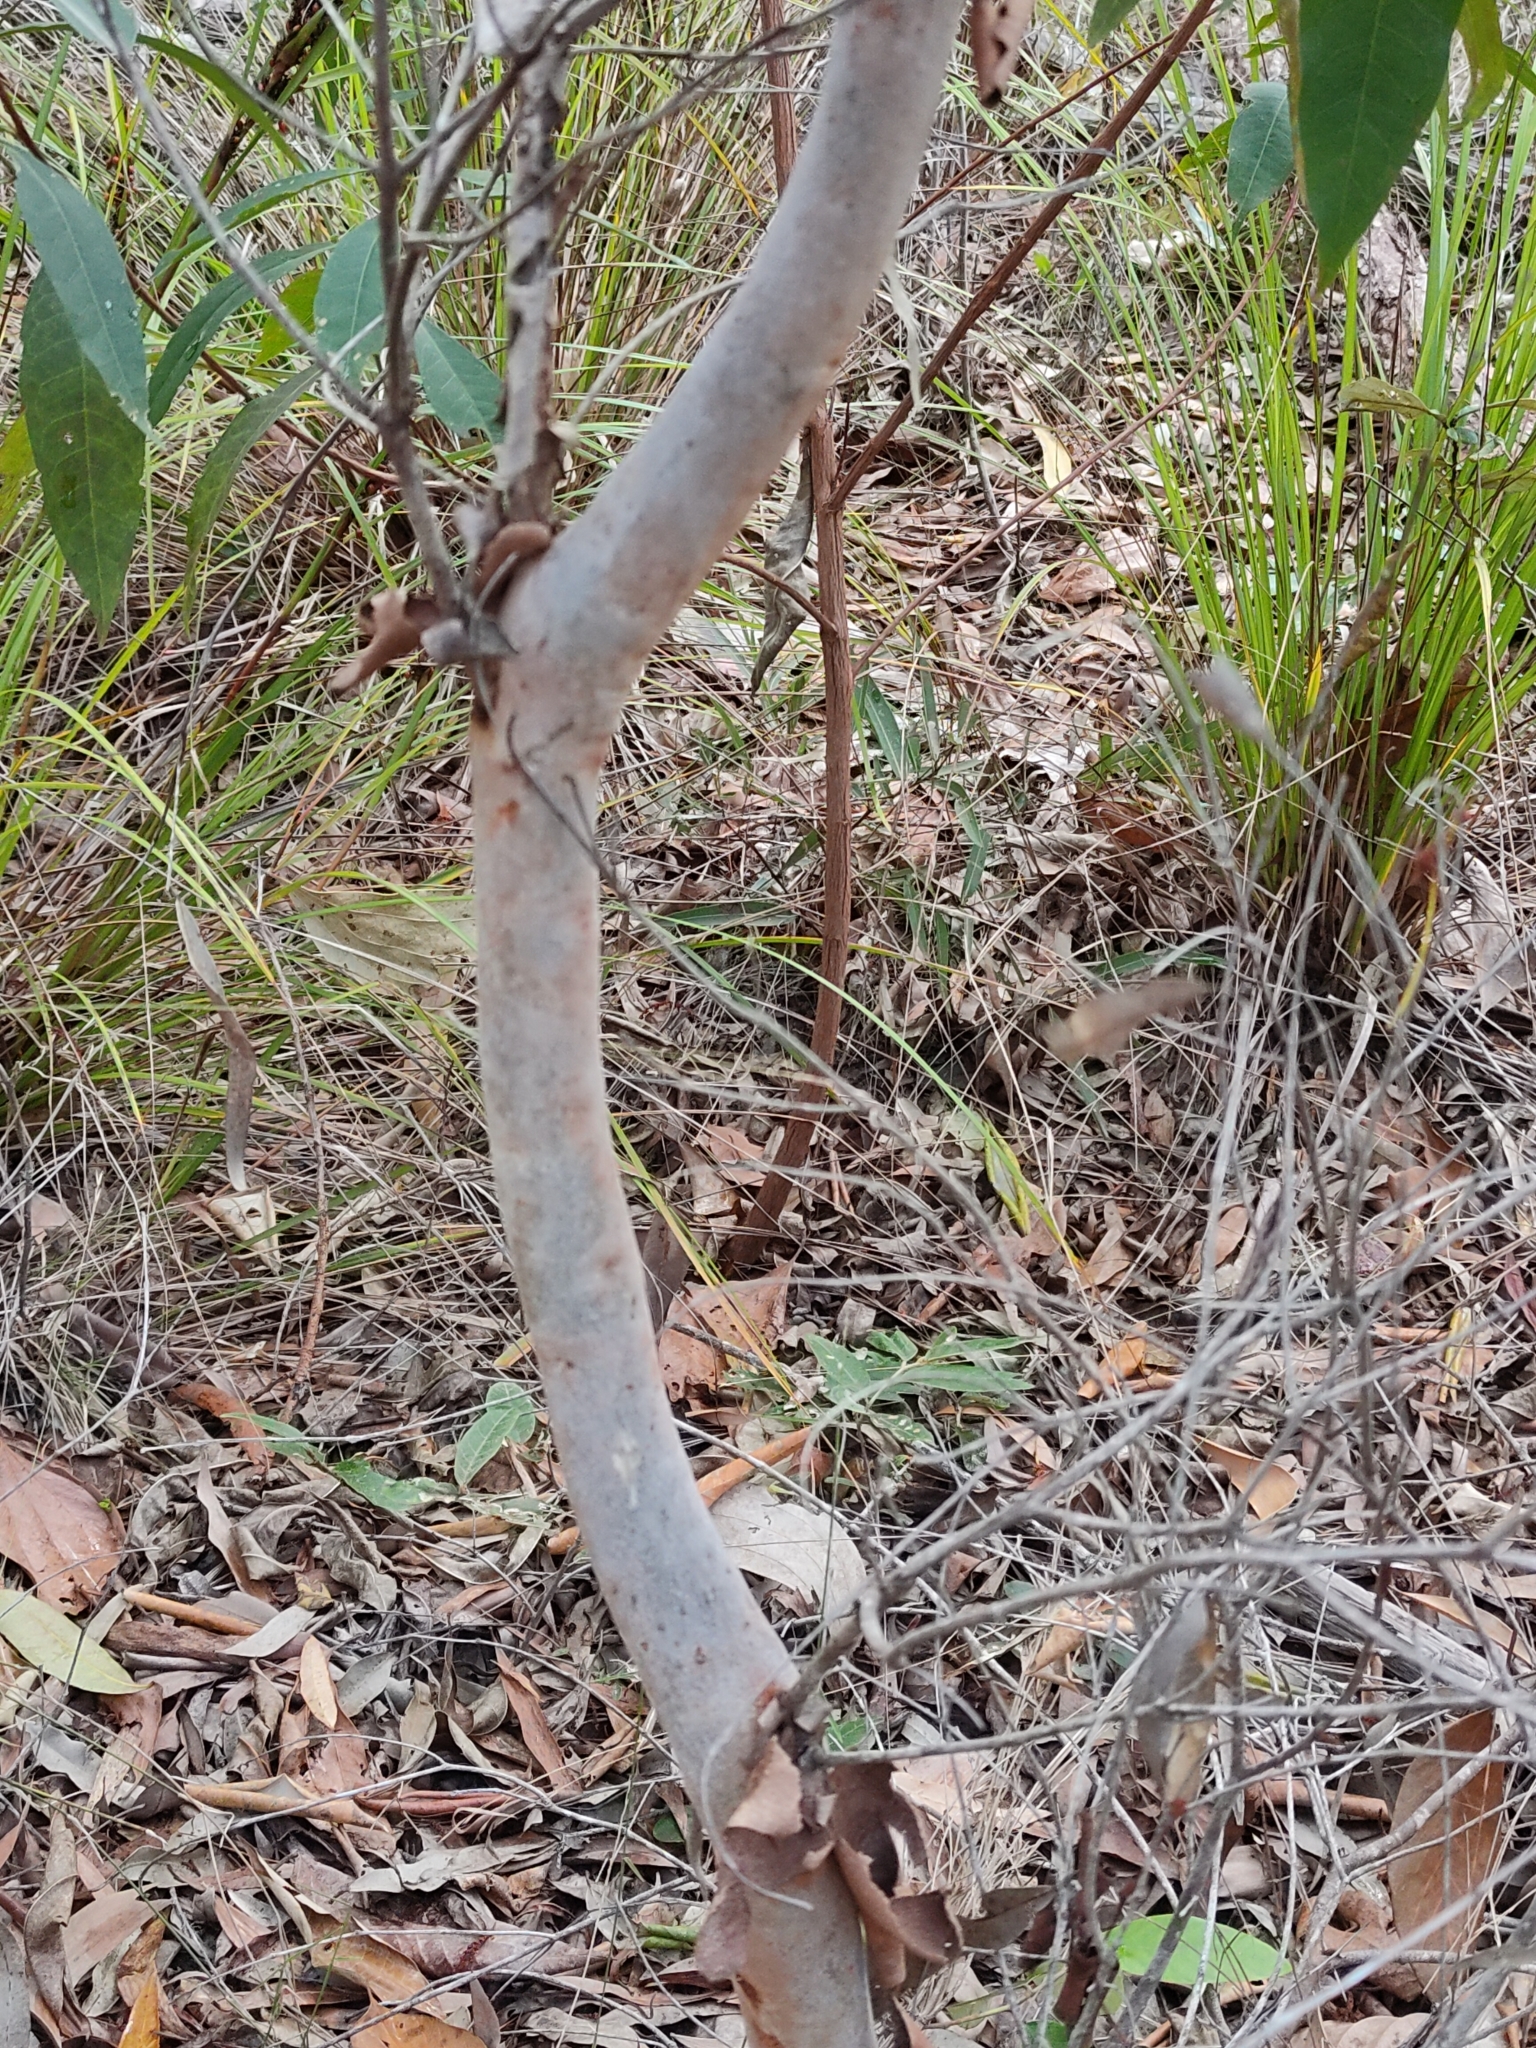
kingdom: Plantae
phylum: Tracheophyta
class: Magnoliopsida
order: Myrtales
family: Myrtaceae
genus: Angophora
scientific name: Angophora leiocarpa
